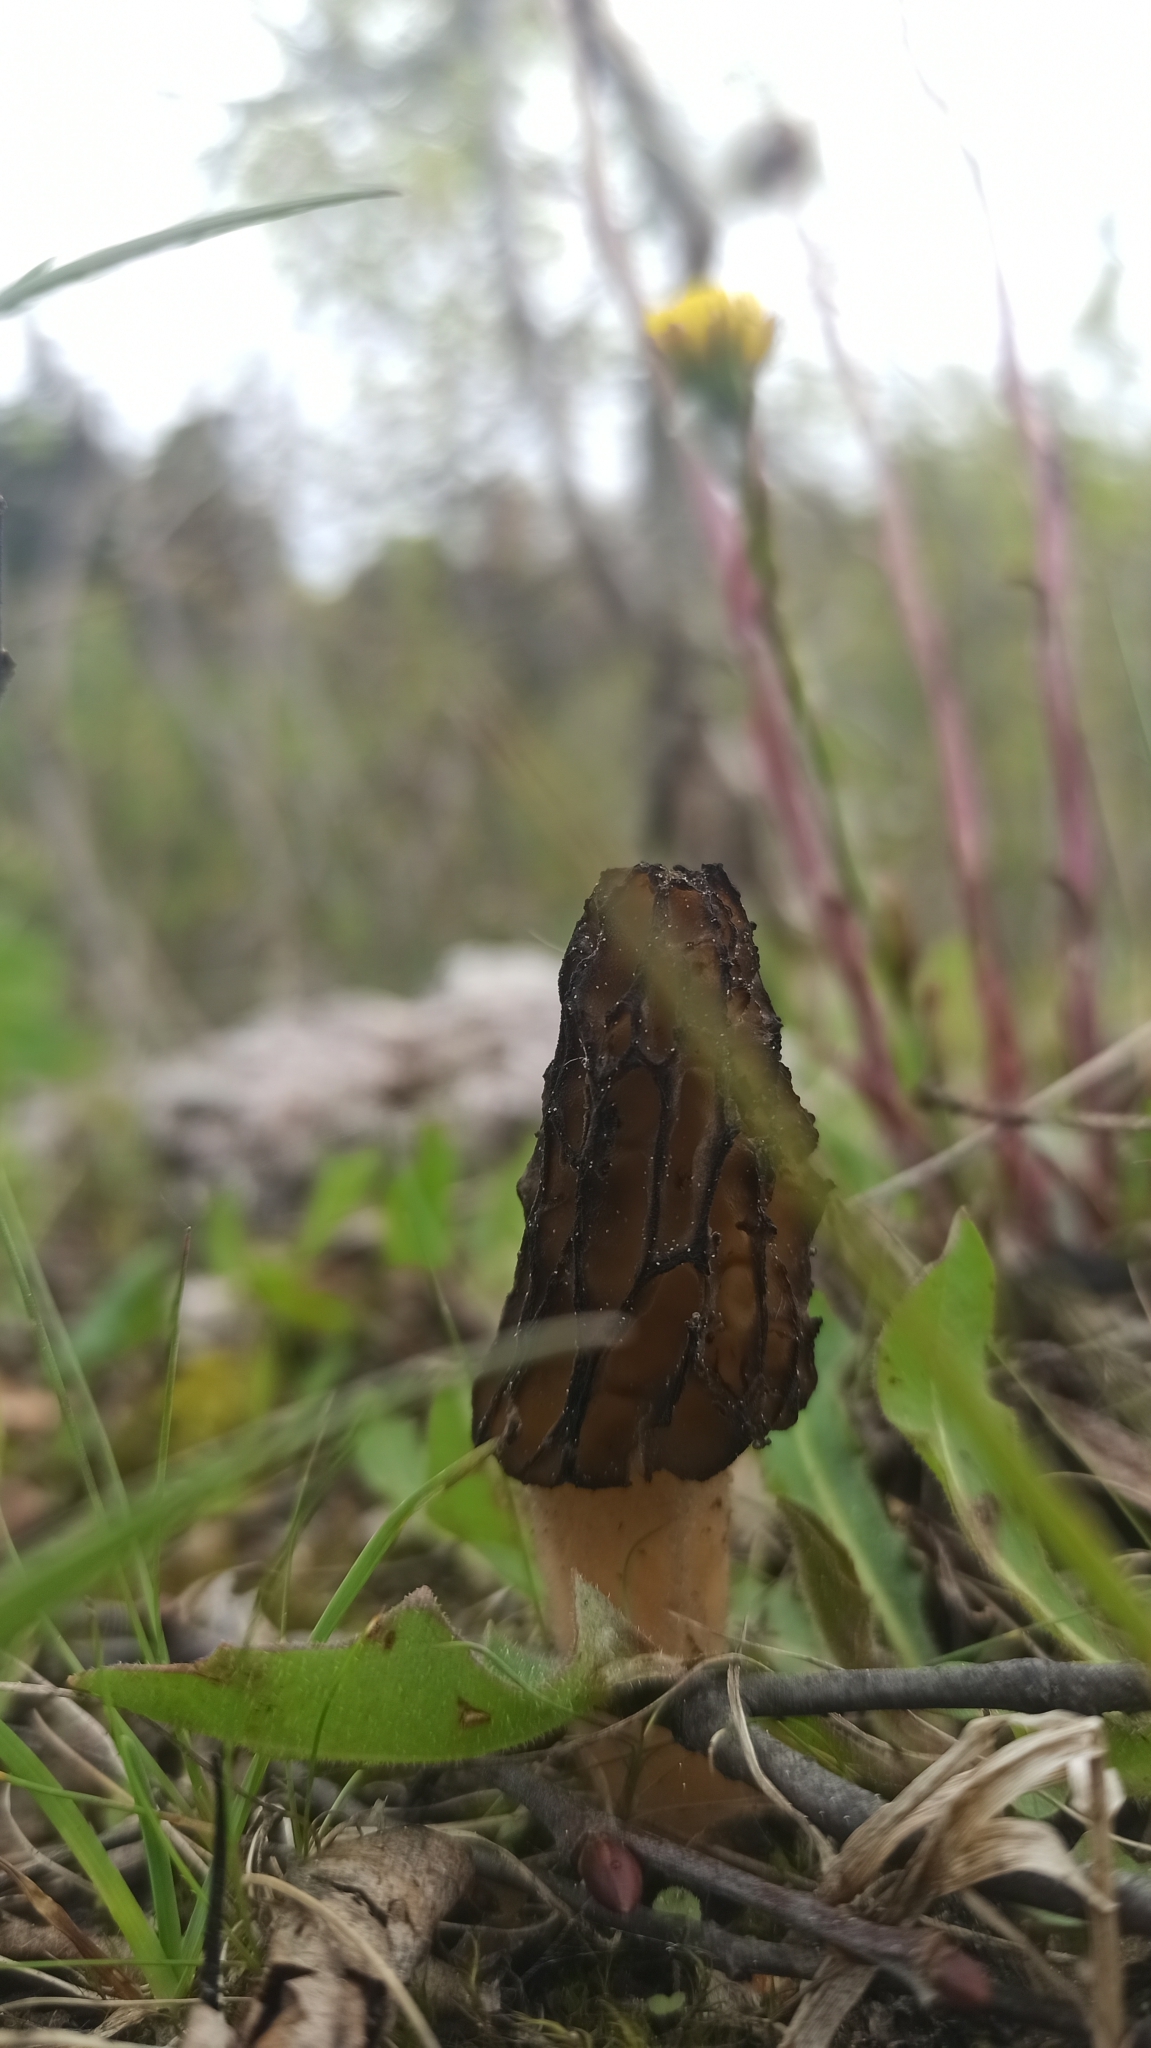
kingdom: Fungi
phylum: Ascomycota
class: Pezizomycetes
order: Pezizales
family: Morchellaceae
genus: Morchella
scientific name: Morchella
